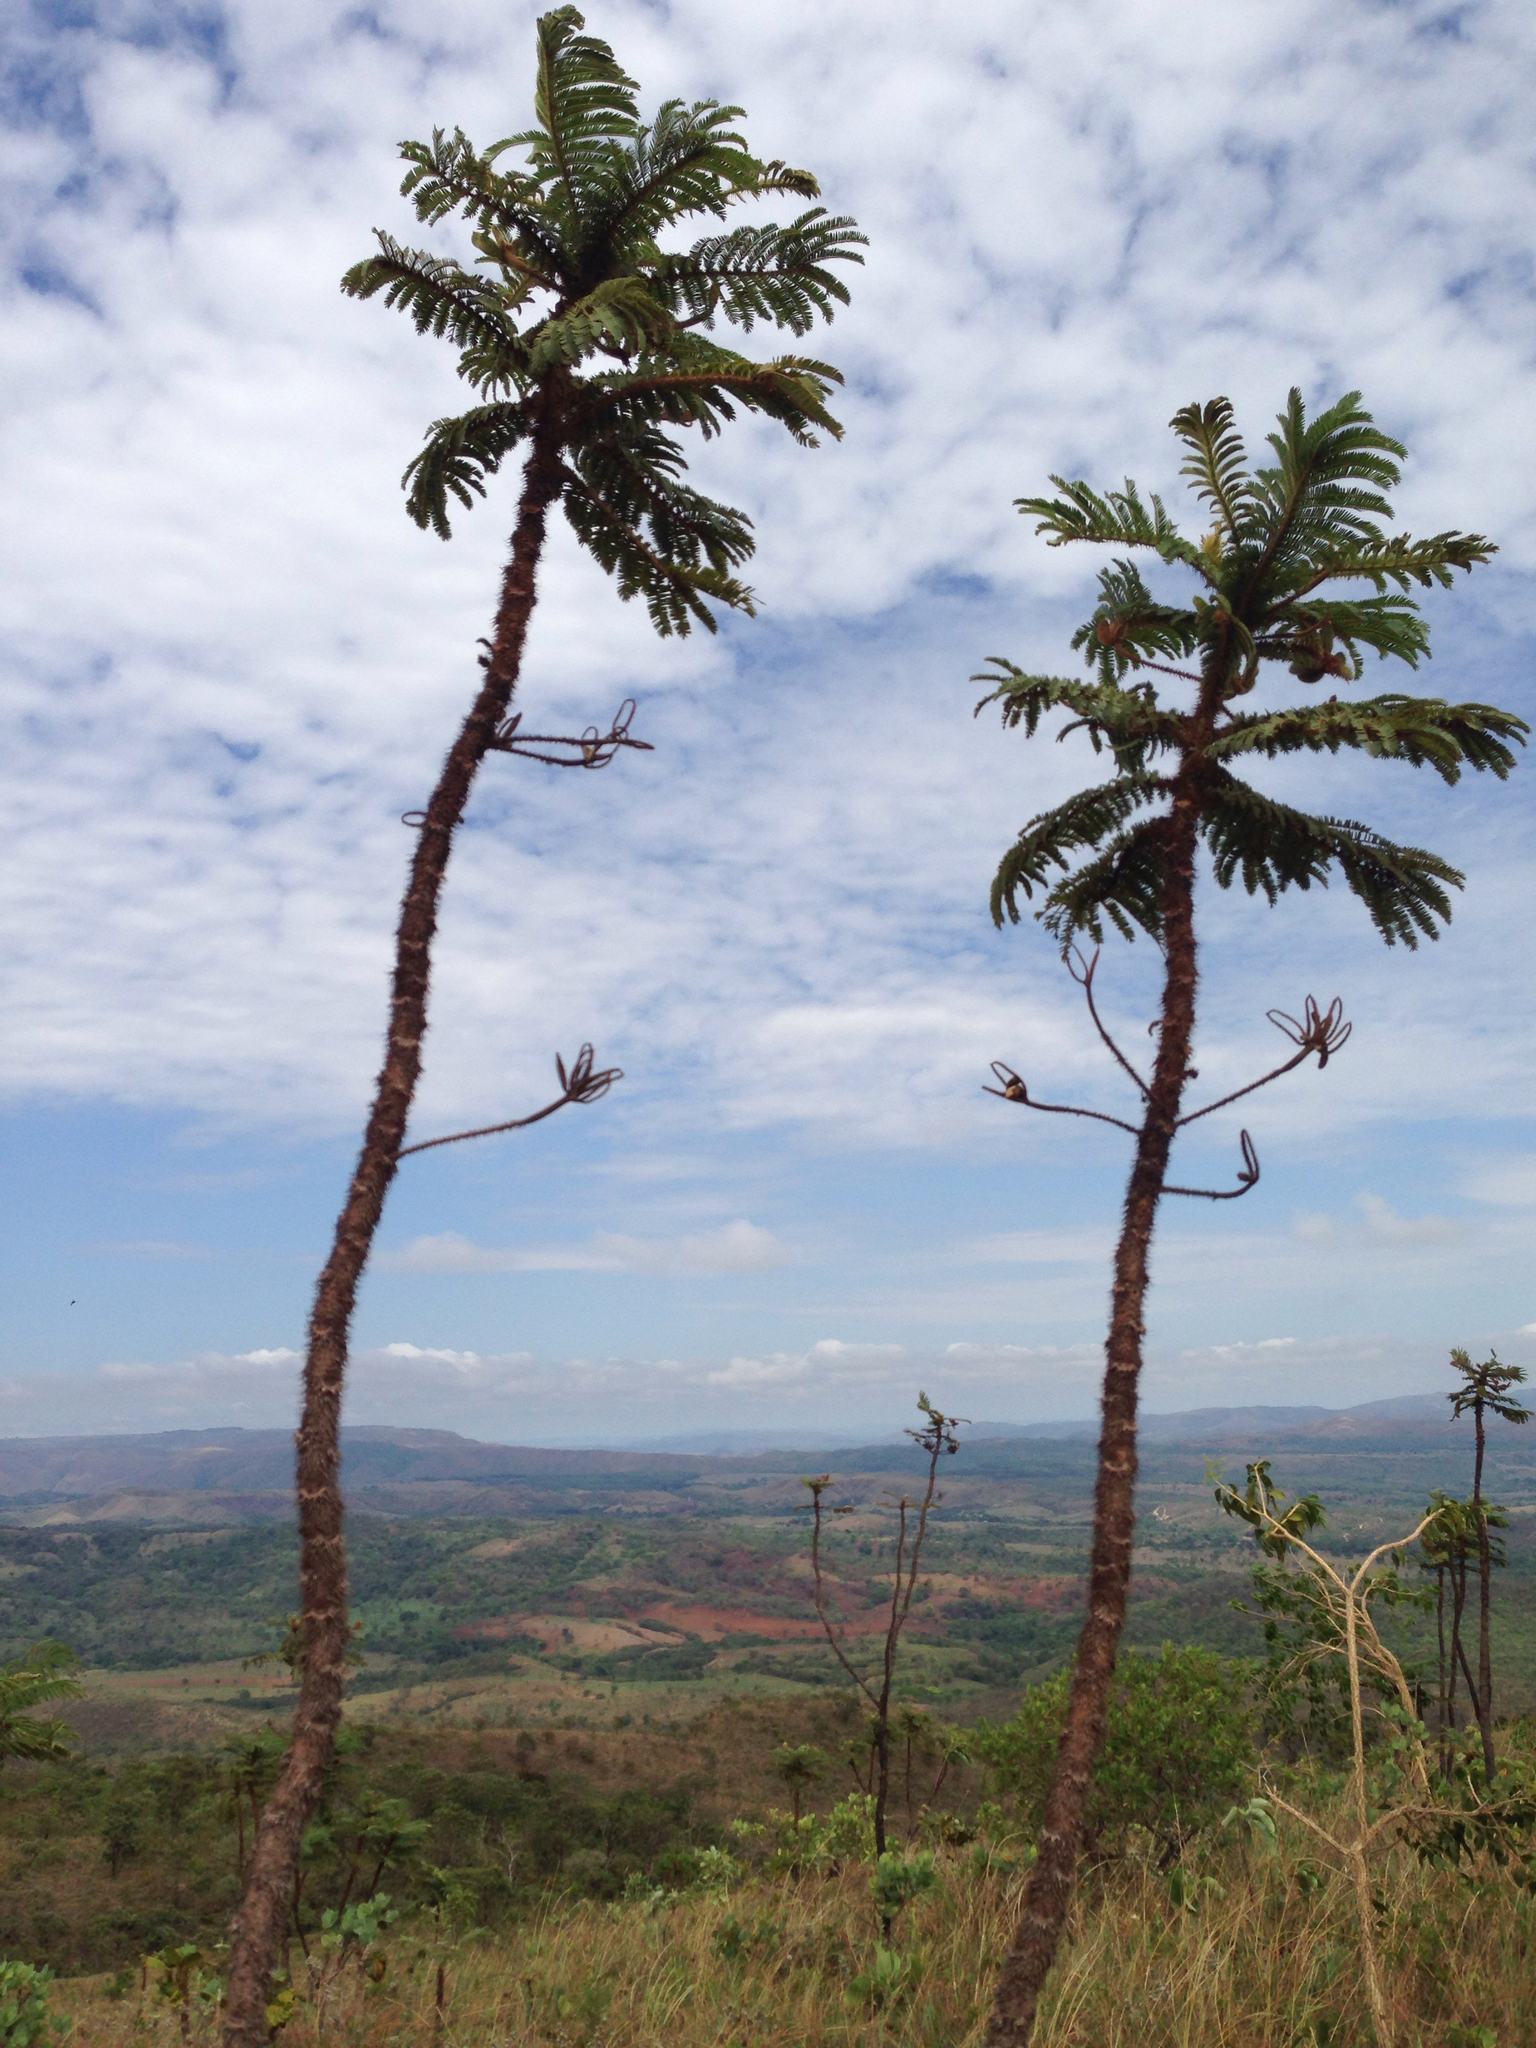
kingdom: Plantae
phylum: Tracheophyta
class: Magnoliopsida
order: Fabales
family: Fabaceae
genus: Mimosa
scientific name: Mimosa setosissima
